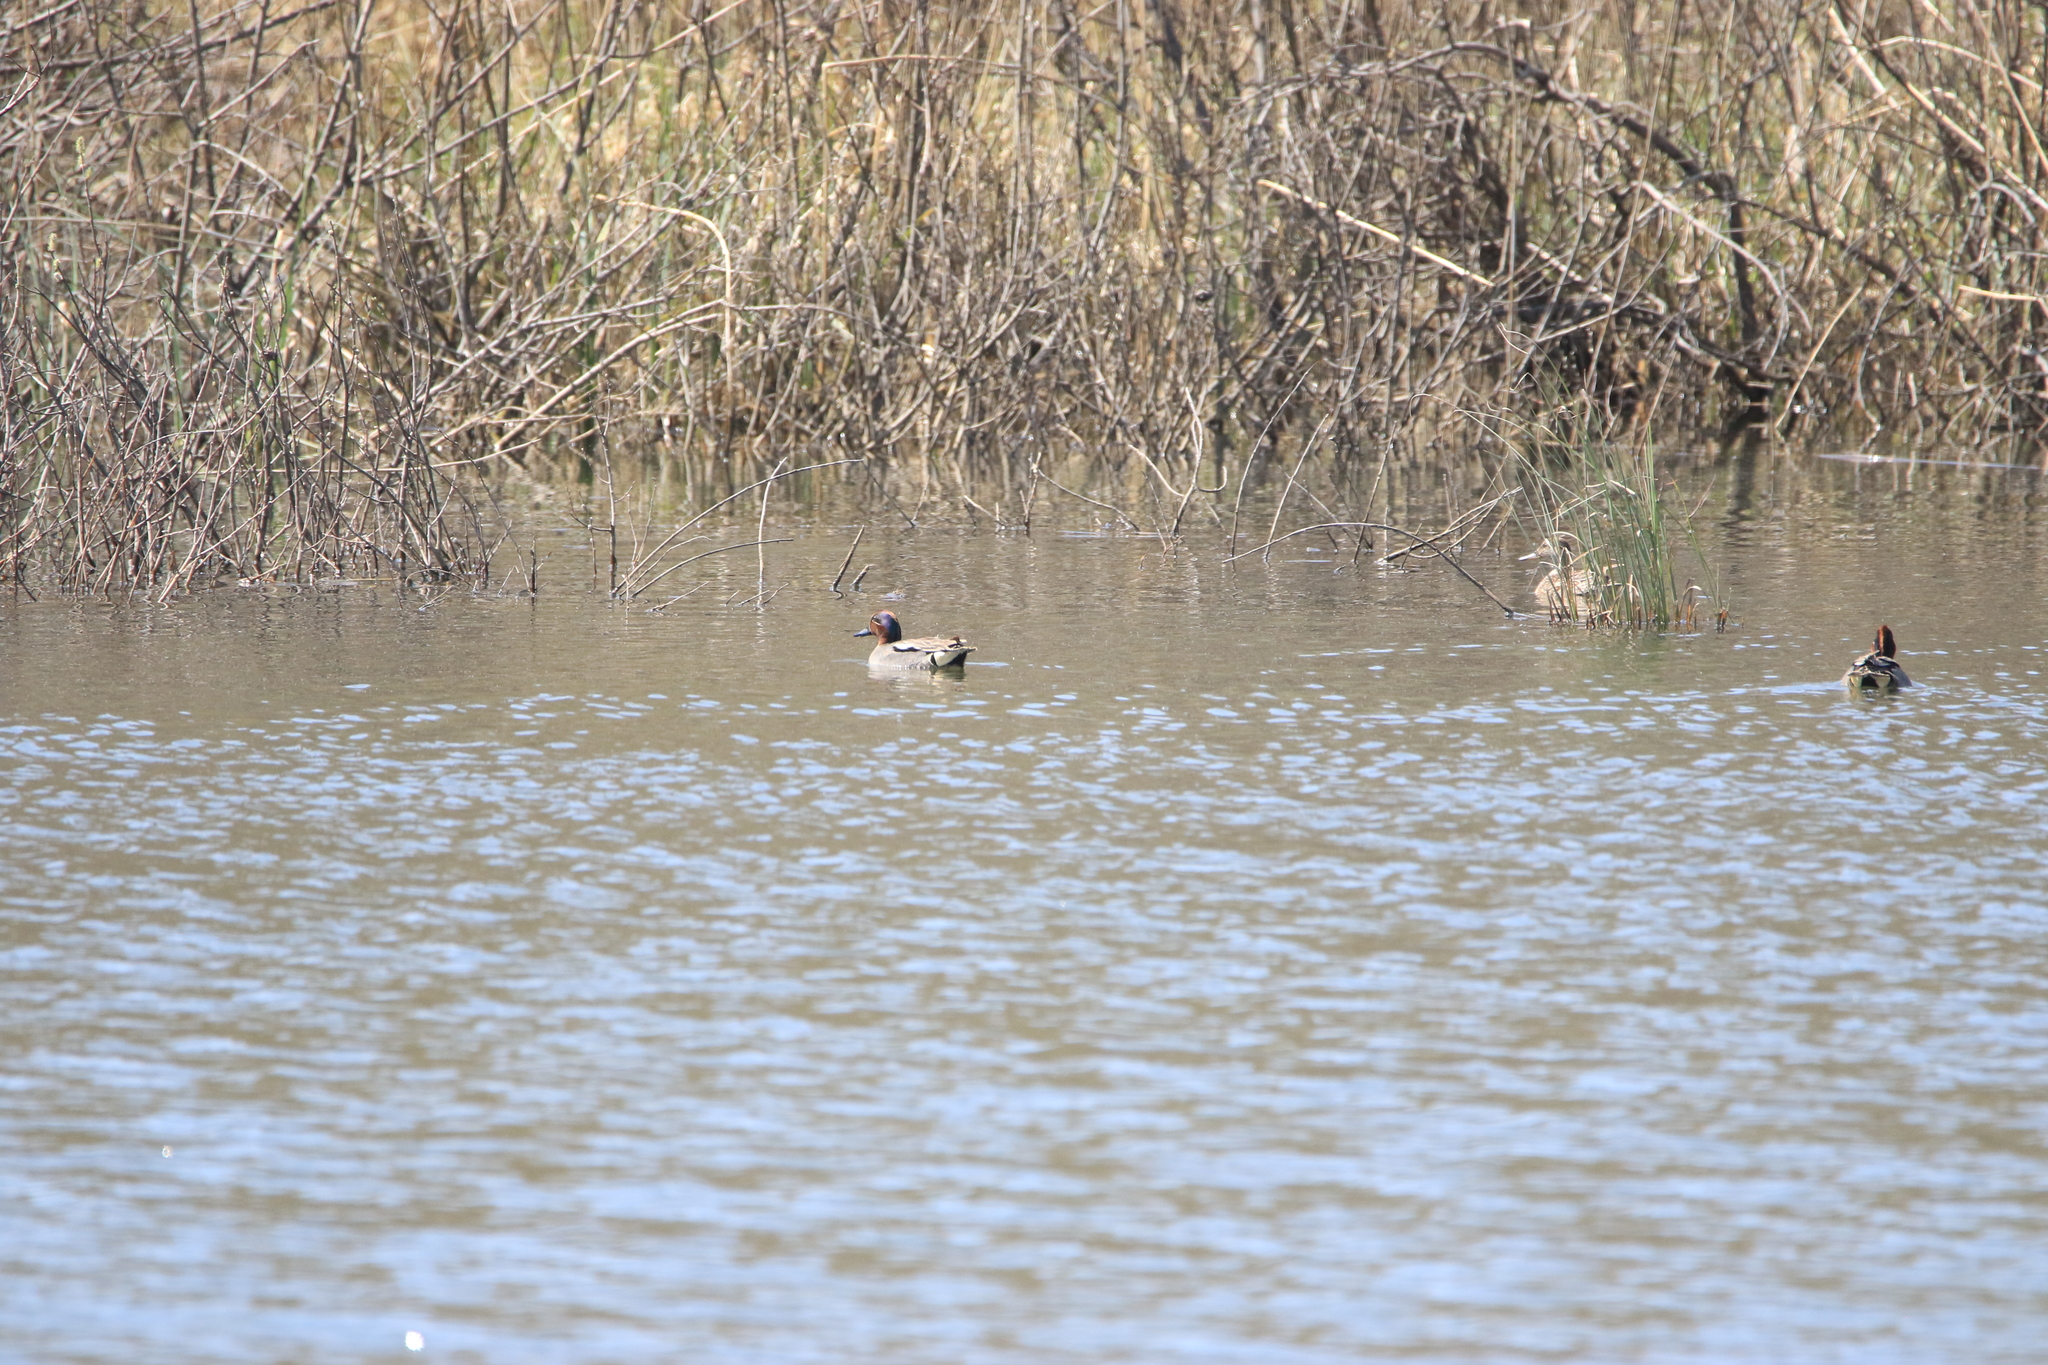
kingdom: Animalia
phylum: Chordata
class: Aves
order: Anseriformes
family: Anatidae
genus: Anas
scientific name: Anas crecca
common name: Eurasian teal
